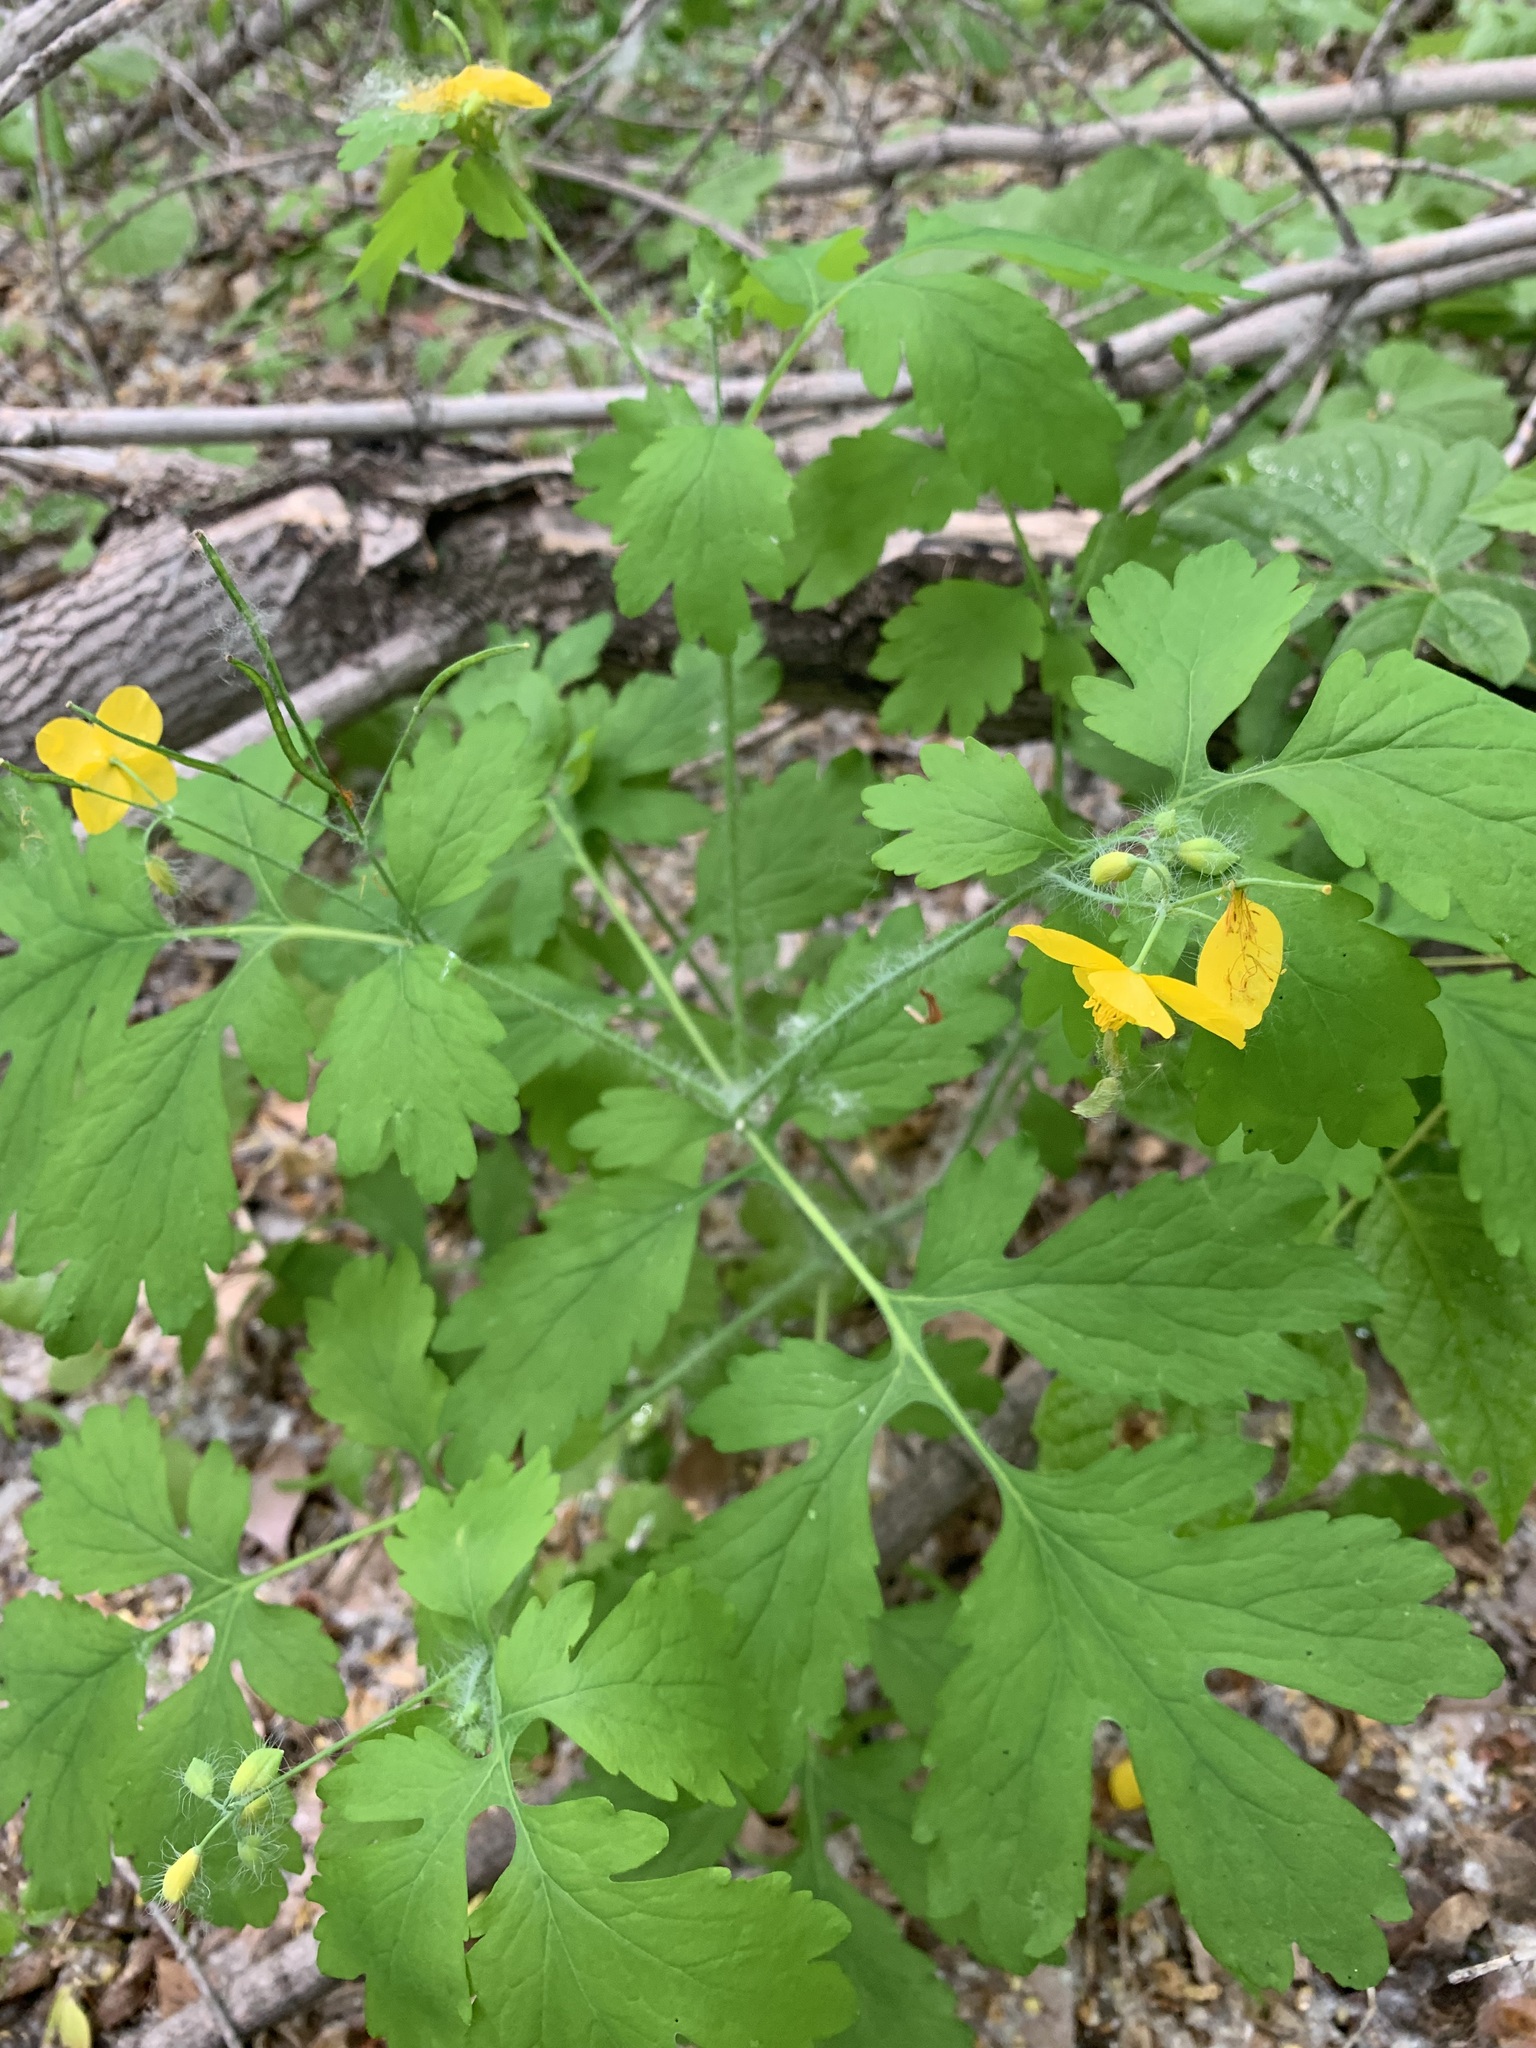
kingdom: Plantae
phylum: Tracheophyta
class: Magnoliopsida
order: Ranunculales
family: Papaveraceae
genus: Chelidonium
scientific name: Chelidonium majus
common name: Greater celandine
